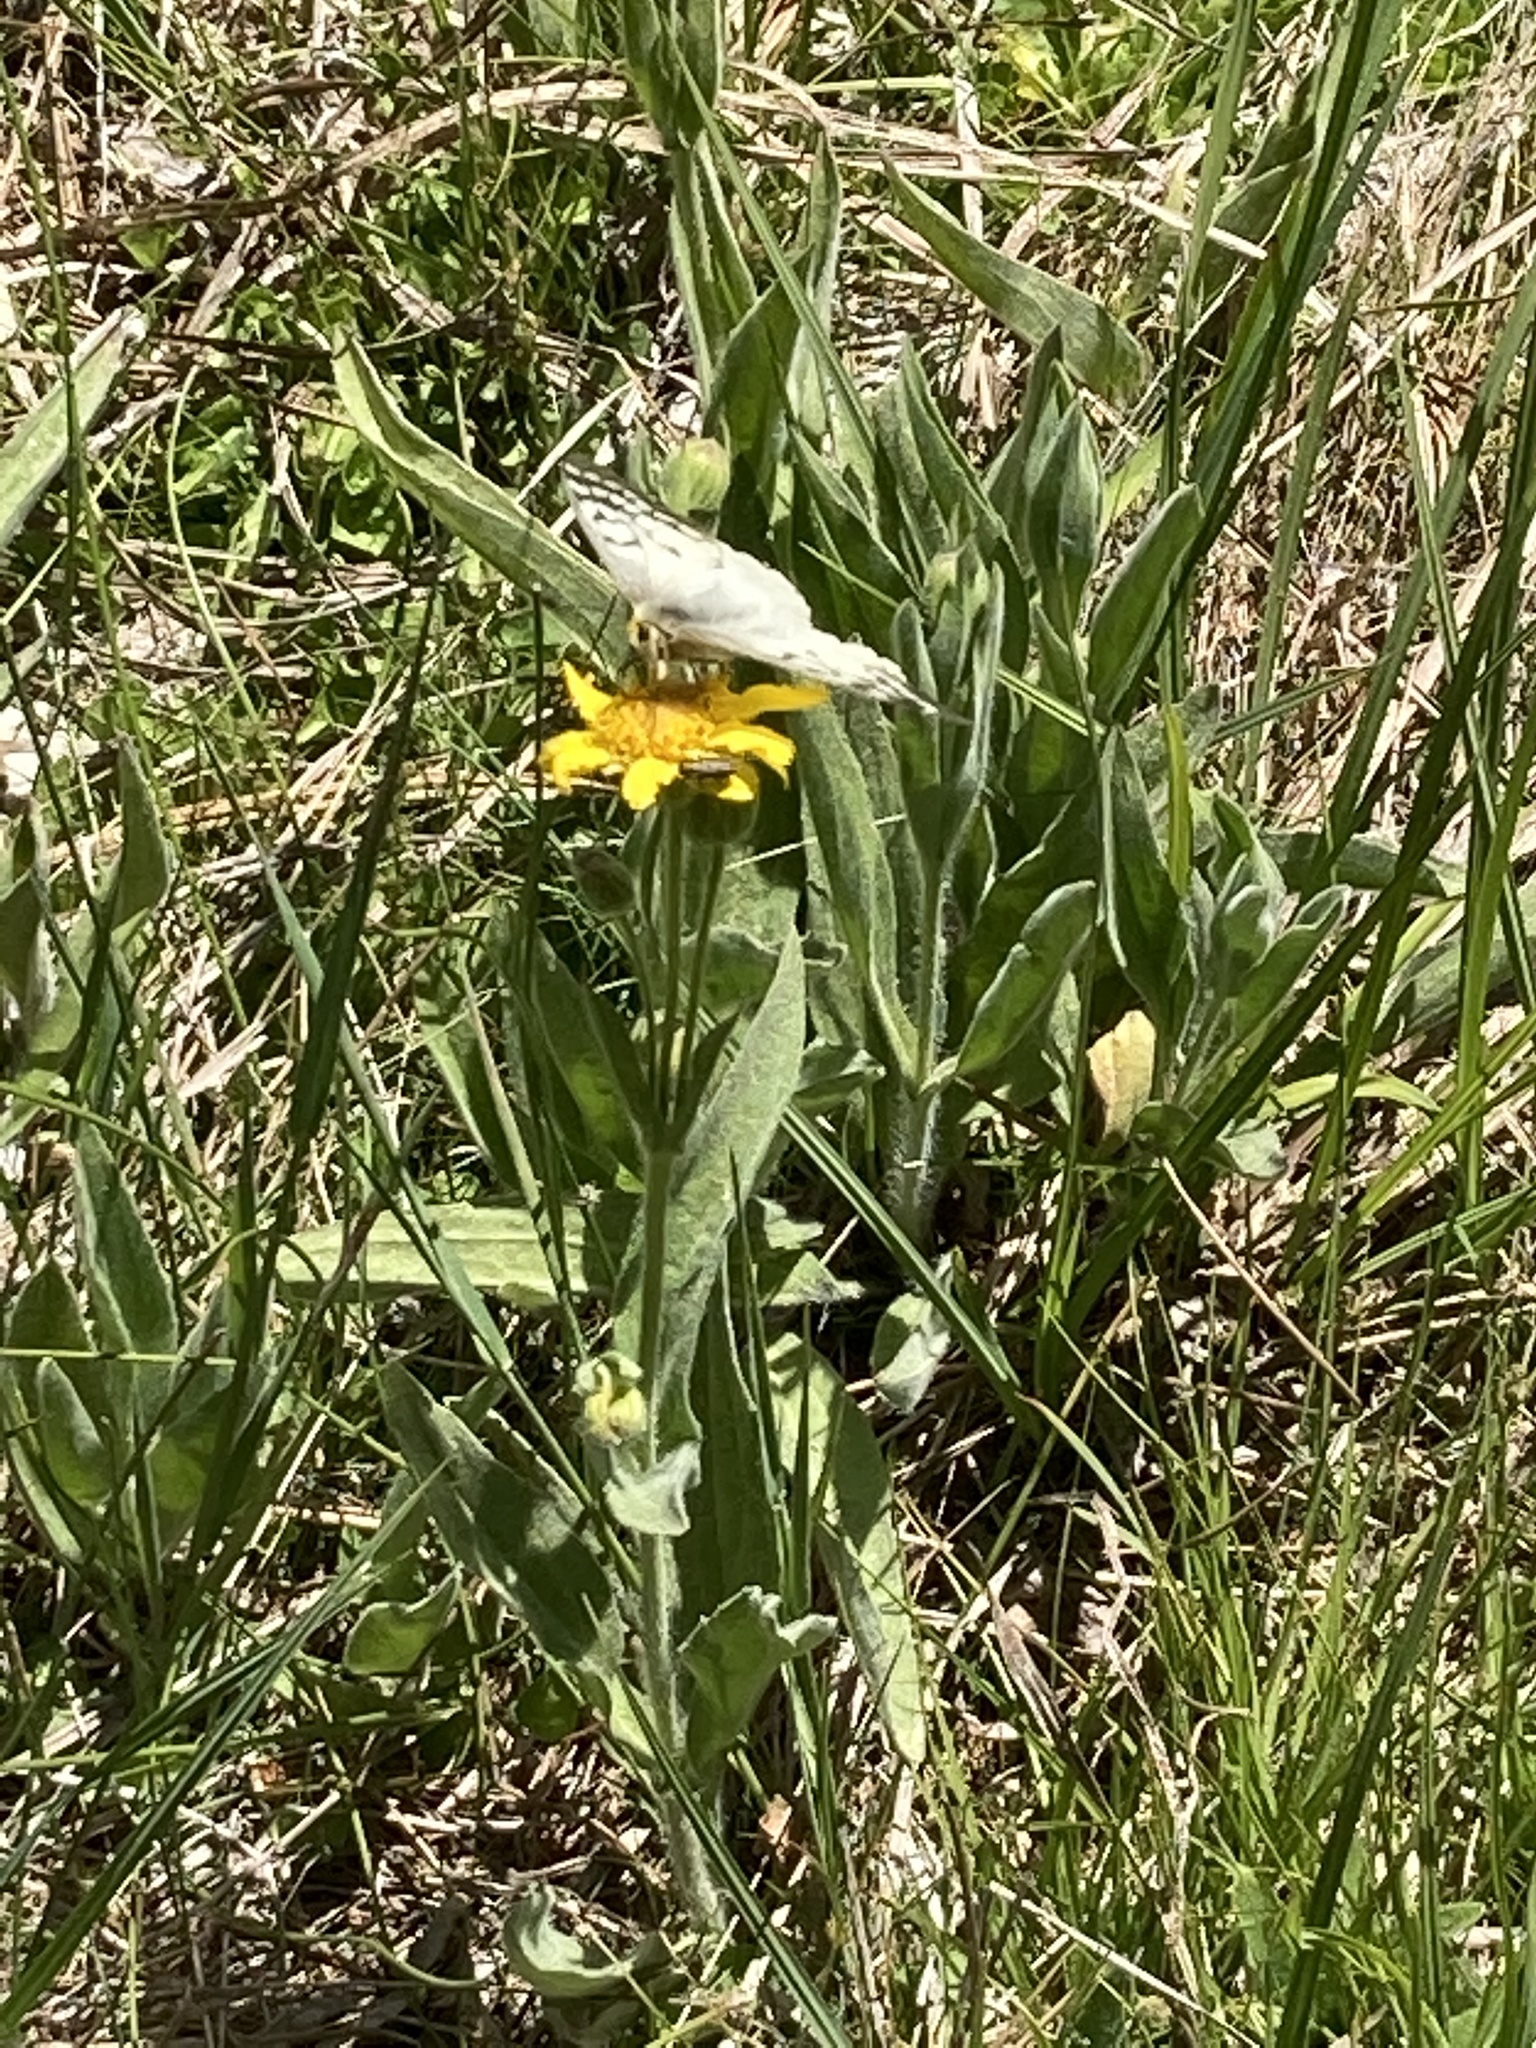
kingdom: Animalia
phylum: Arthropoda
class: Insecta
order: Lepidoptera
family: Papilionidae
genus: Parnassius
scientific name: Parnassius clodius
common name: American apollo
